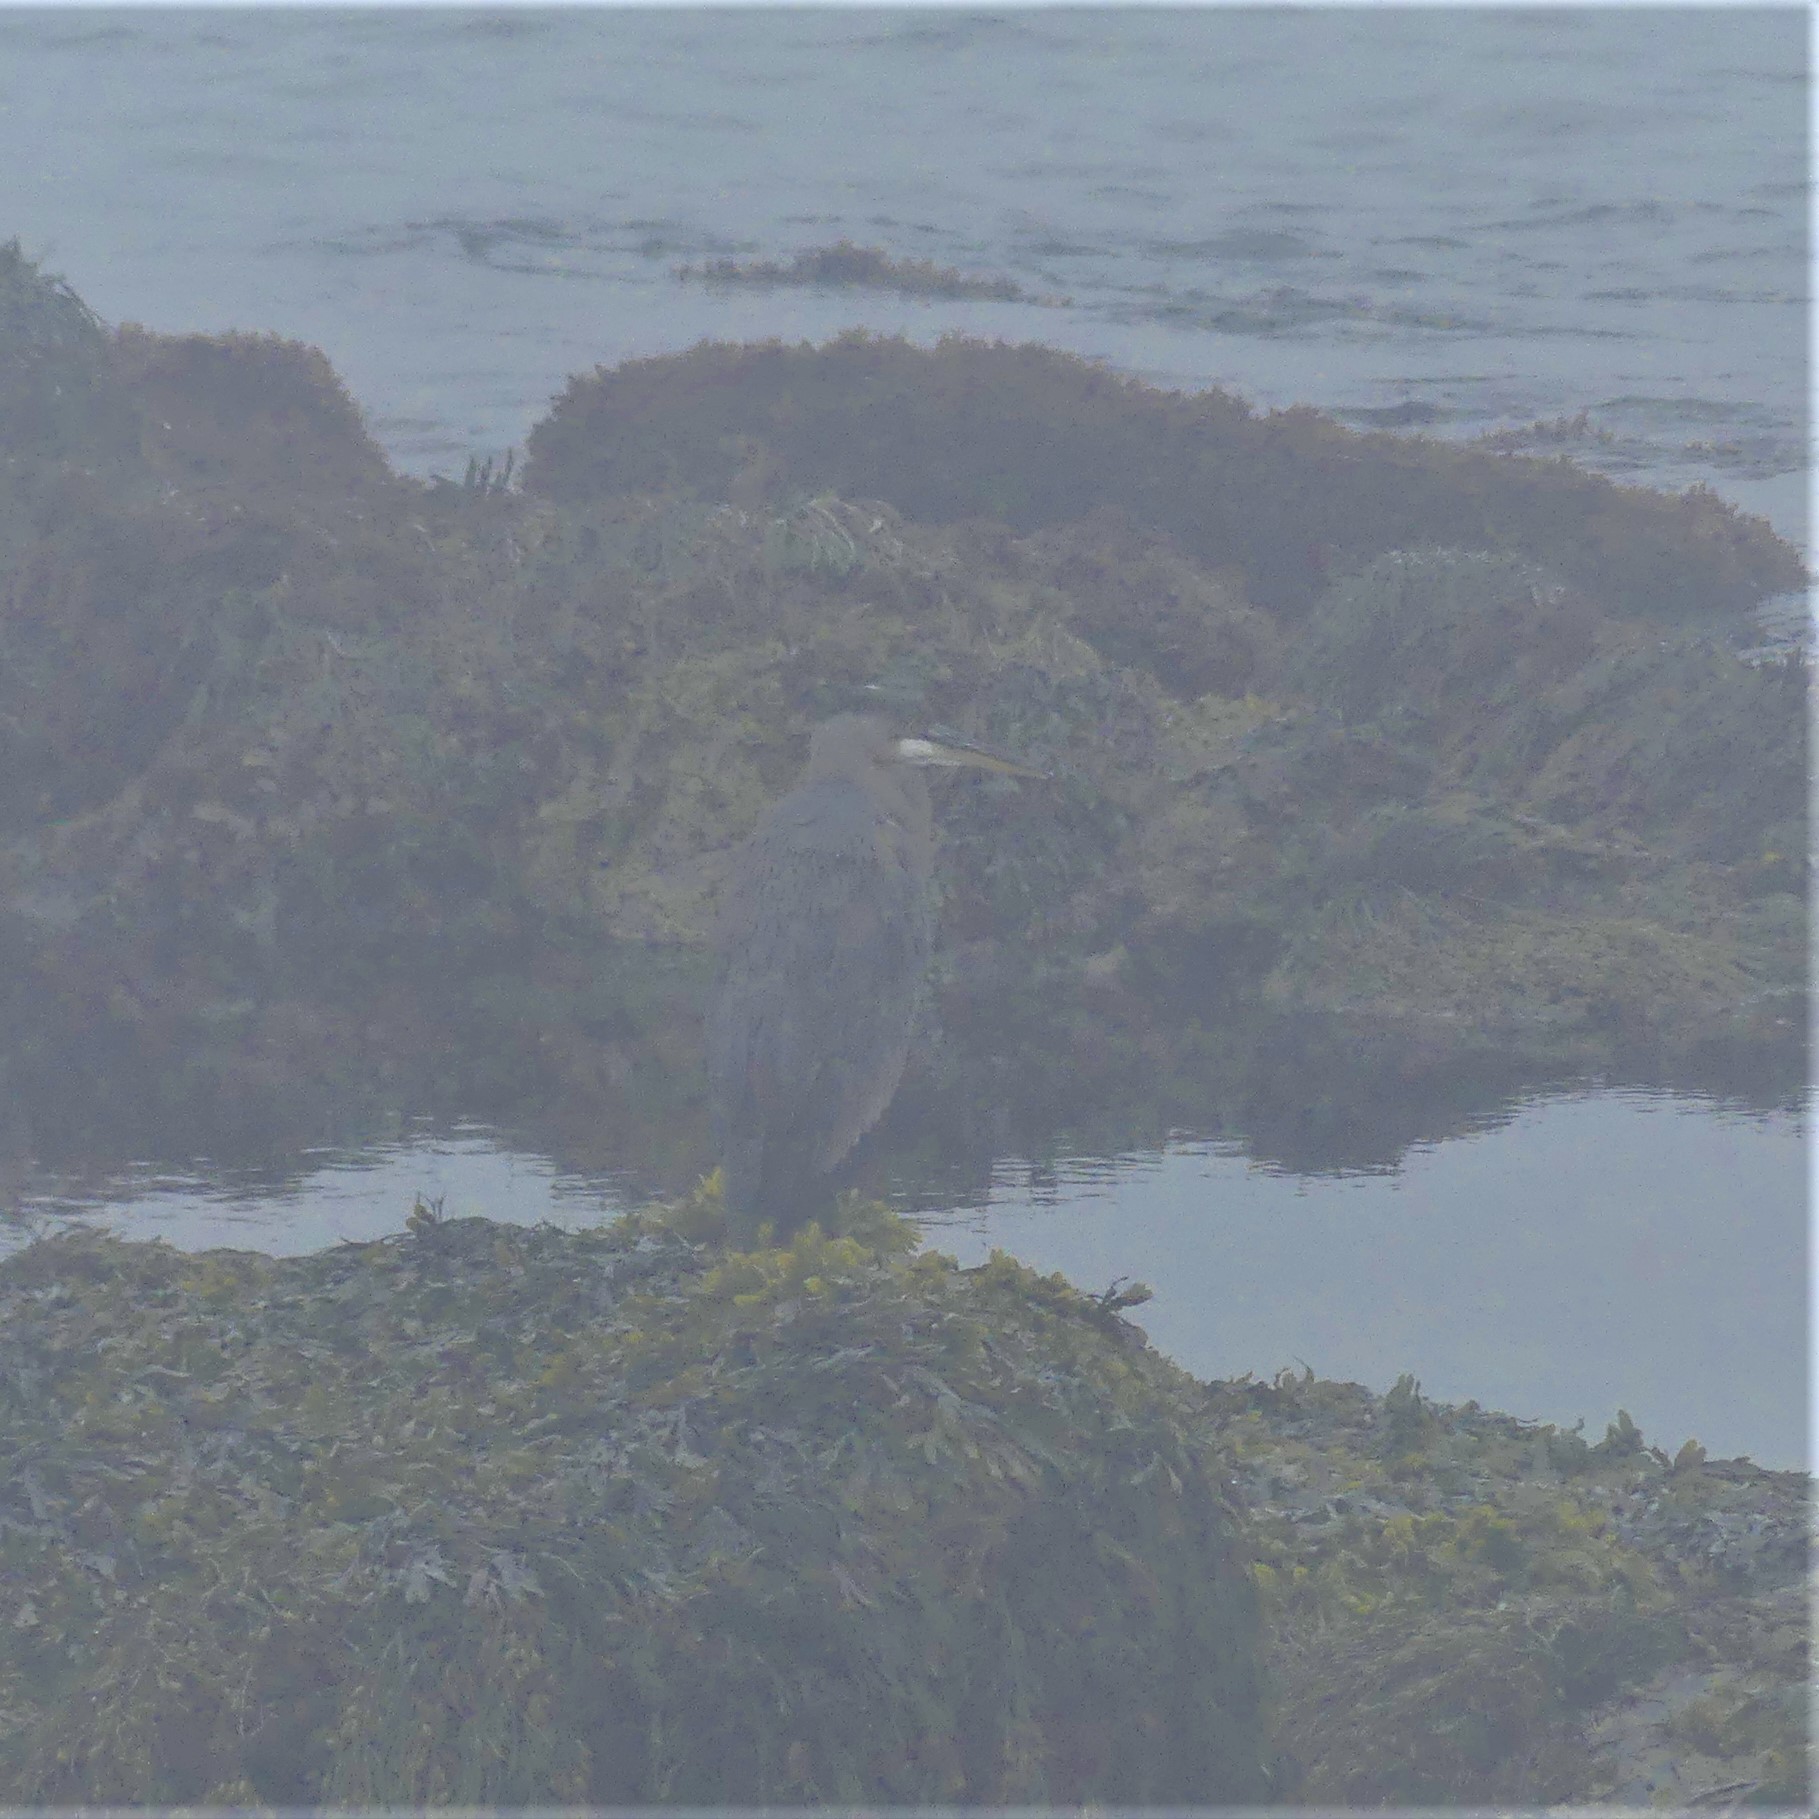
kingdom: Animalia
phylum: Chordata
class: Aves
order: Pelecaniformes
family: Ardeidae
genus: Ardea
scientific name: Ardea herodias
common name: Great blue heron
